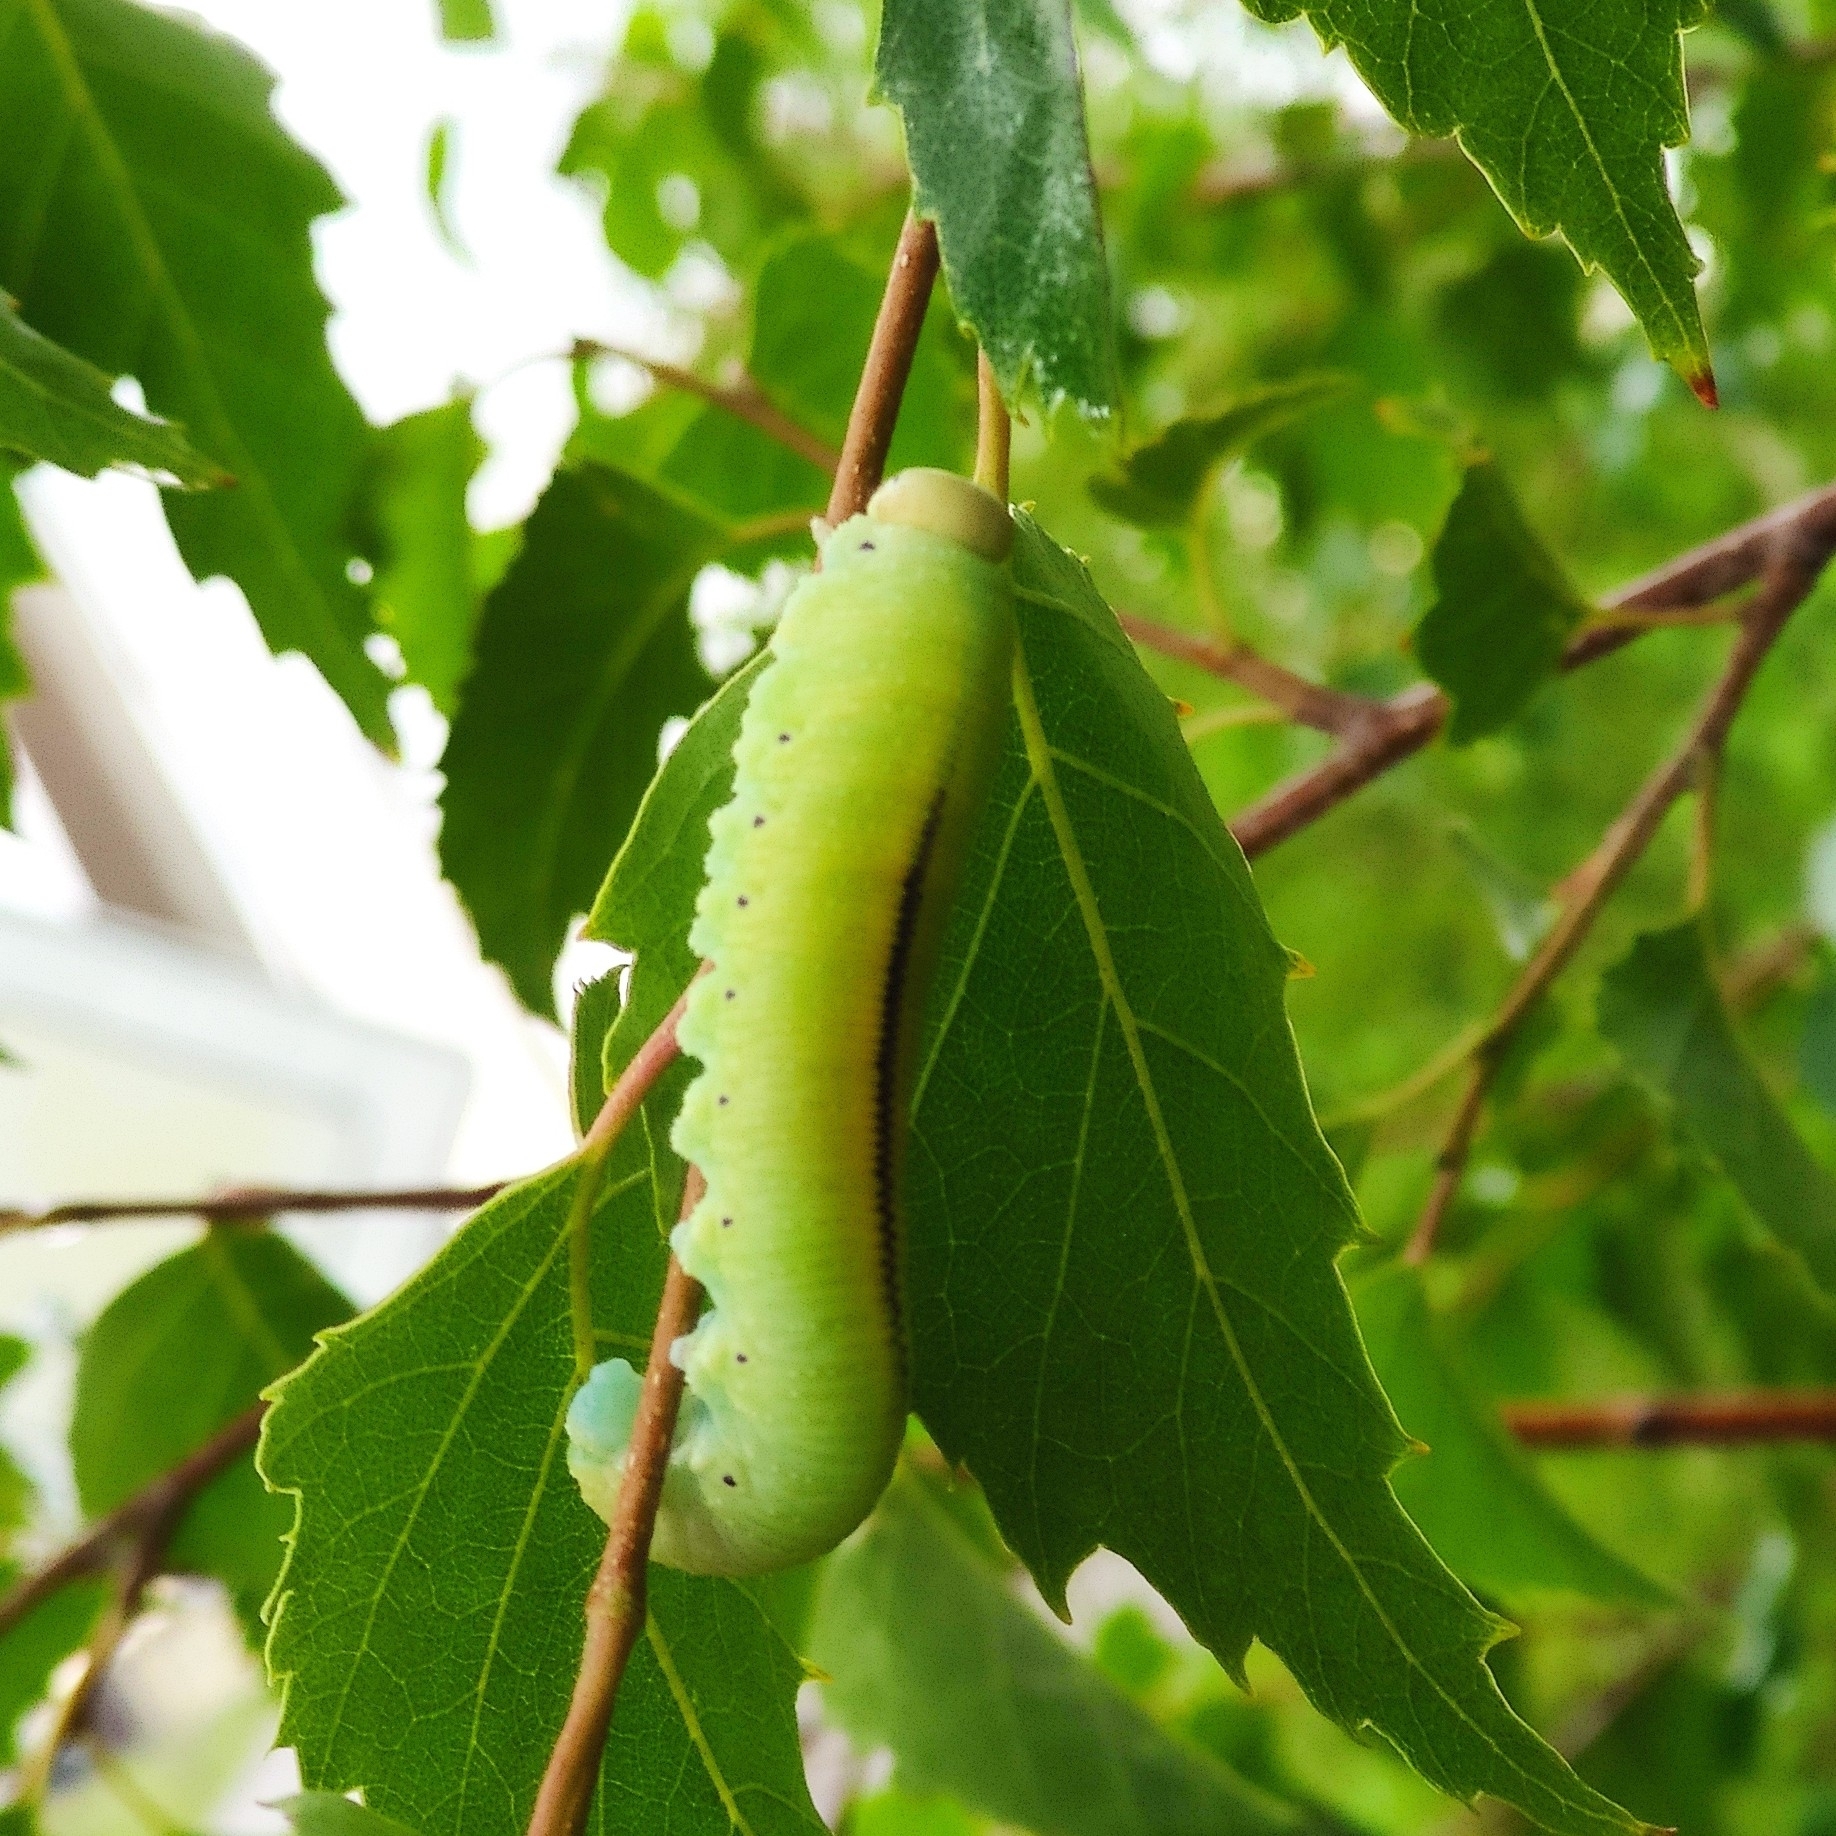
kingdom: Animalia
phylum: Arthropoda
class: Insecta
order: Hymenoptera
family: Cimbicidae
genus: Cimbex
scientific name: Cimbex femoratus
